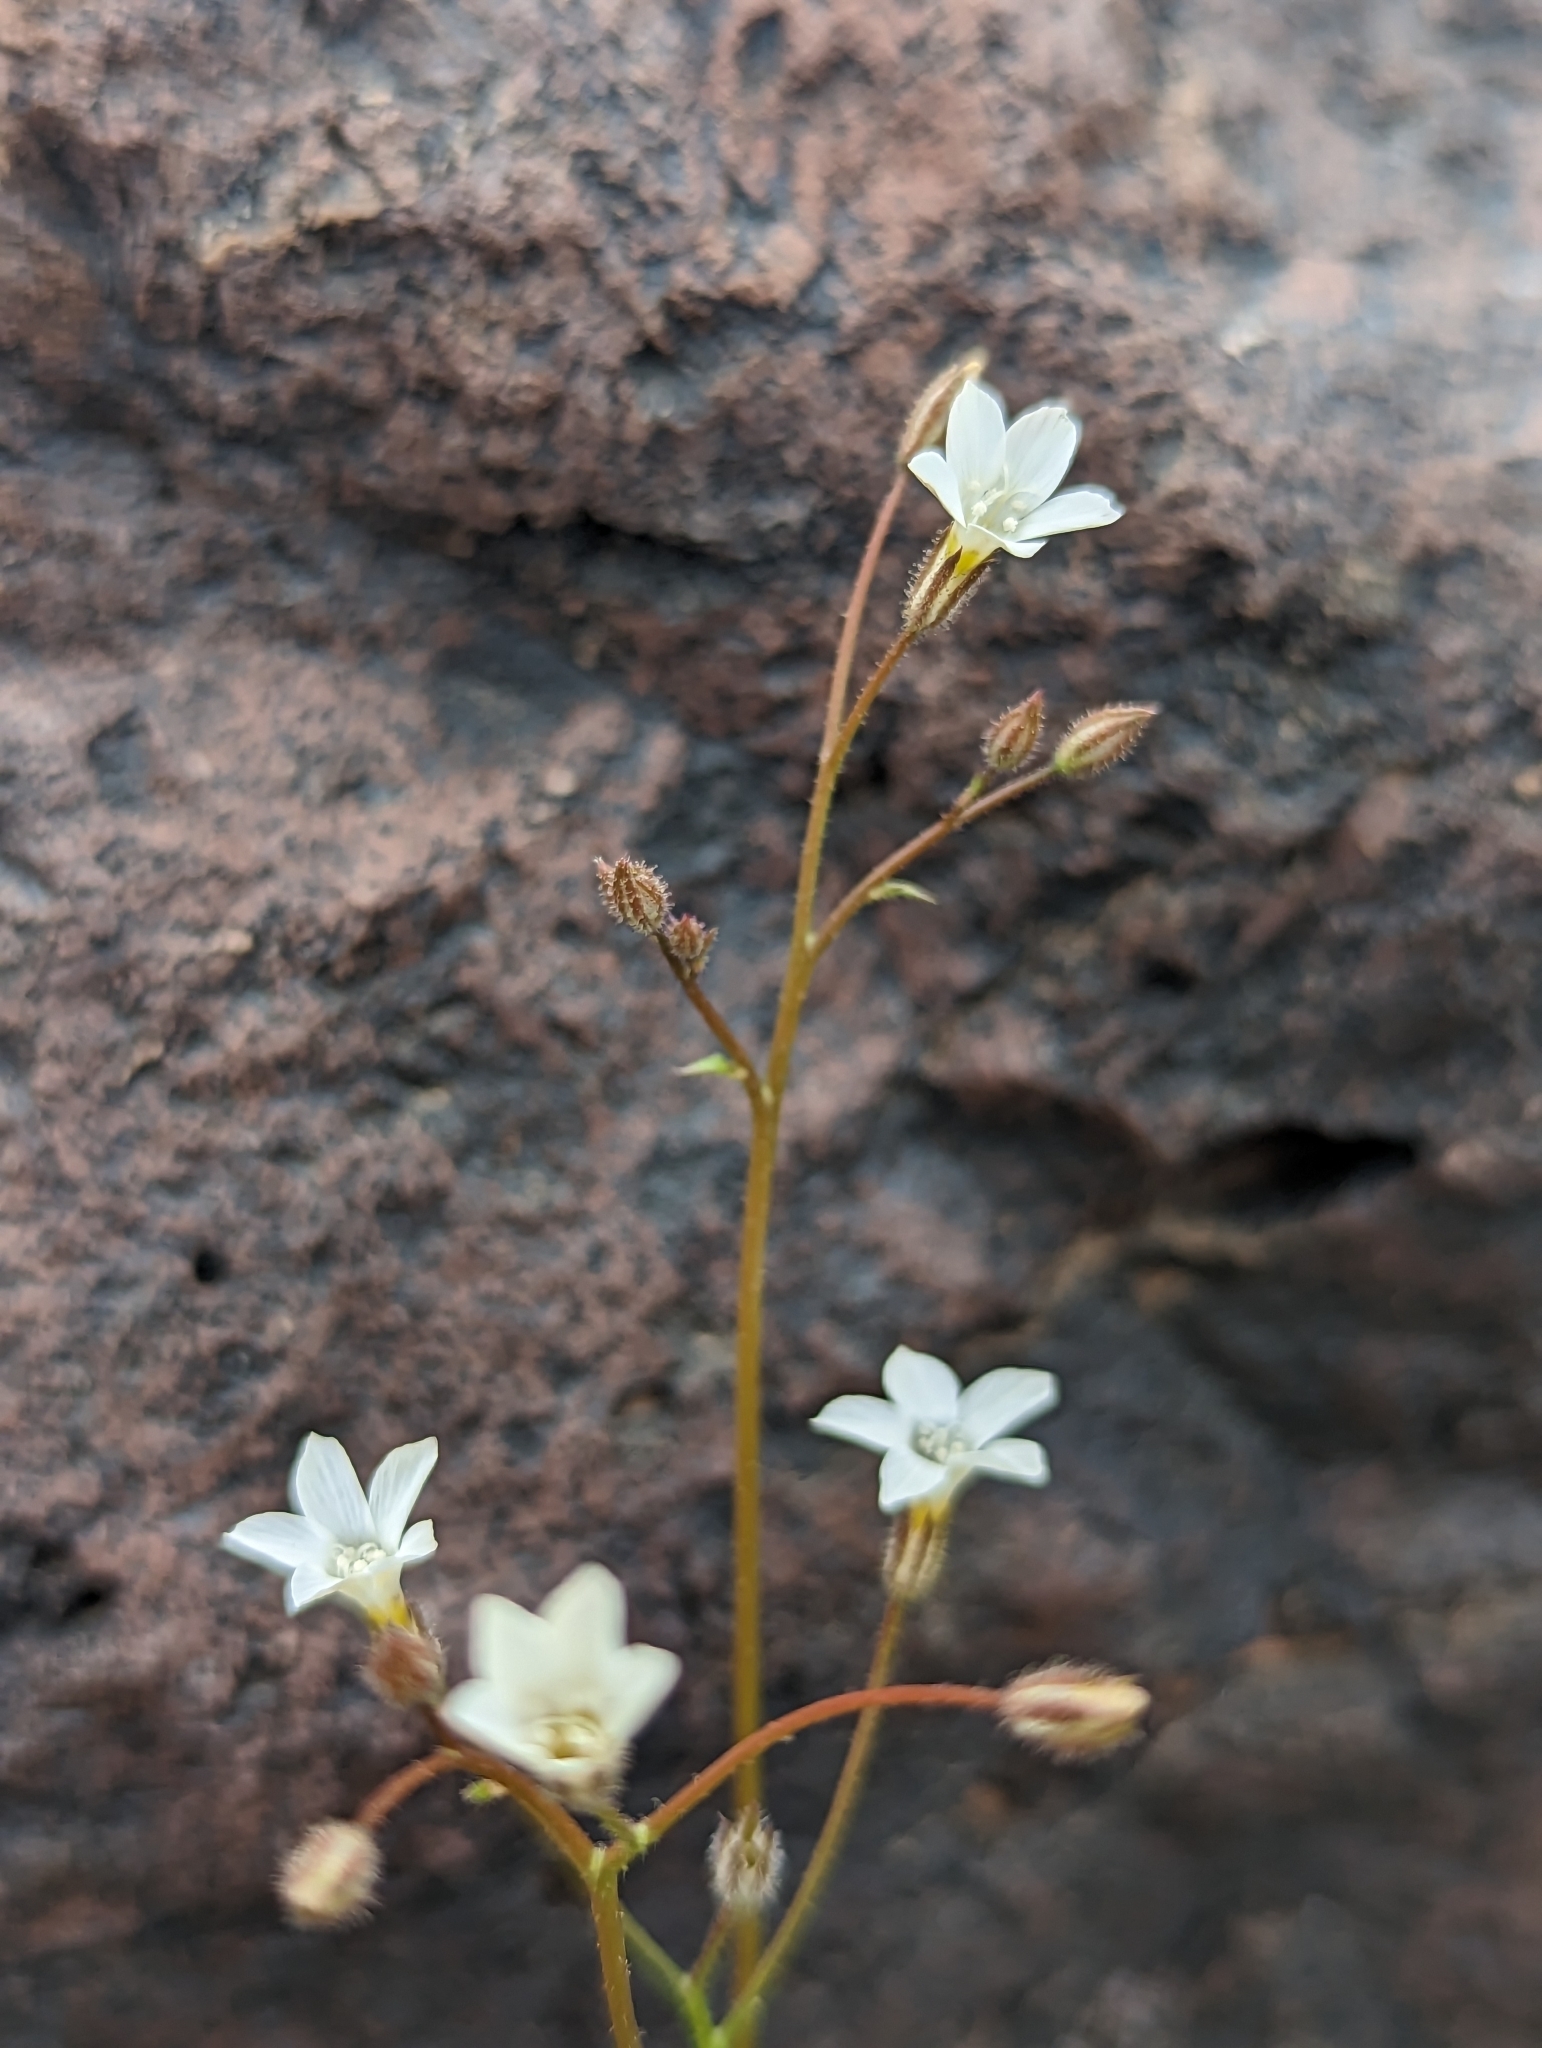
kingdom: Plantae
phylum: Tracheophyta
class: Magnoliopsida
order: Ericales
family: Polemoniaceae
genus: Gilia
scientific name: Gilia stellata
